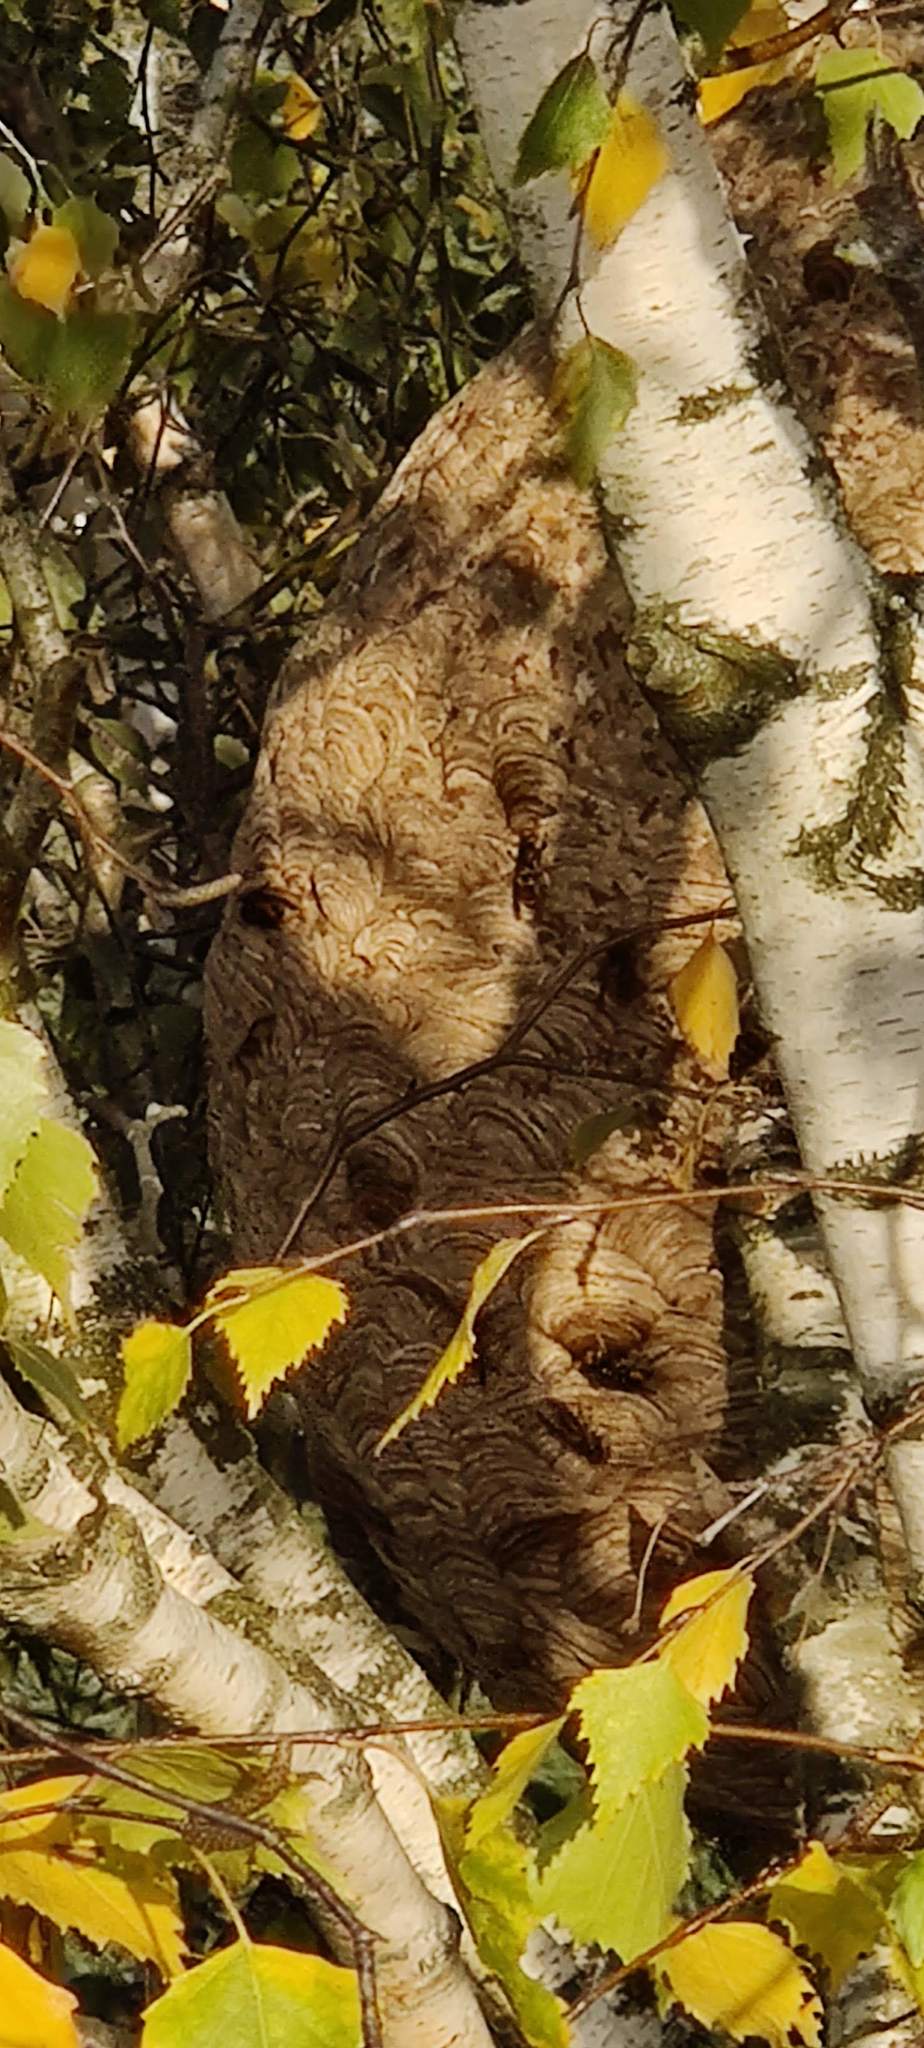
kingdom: Animalia
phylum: Arthropoda
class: Insecta
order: Hymenoptera
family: Vespidae
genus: Vespa
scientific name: Vespa velutina
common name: Asian hornet
